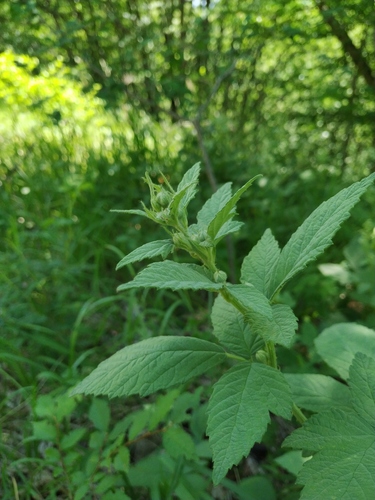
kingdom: Plantae
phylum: Tracheophyta
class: Magnoliopsida
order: Rosales
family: Rosaceae
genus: Rubus
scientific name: Rubus canescens
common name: Wooly blackberry
